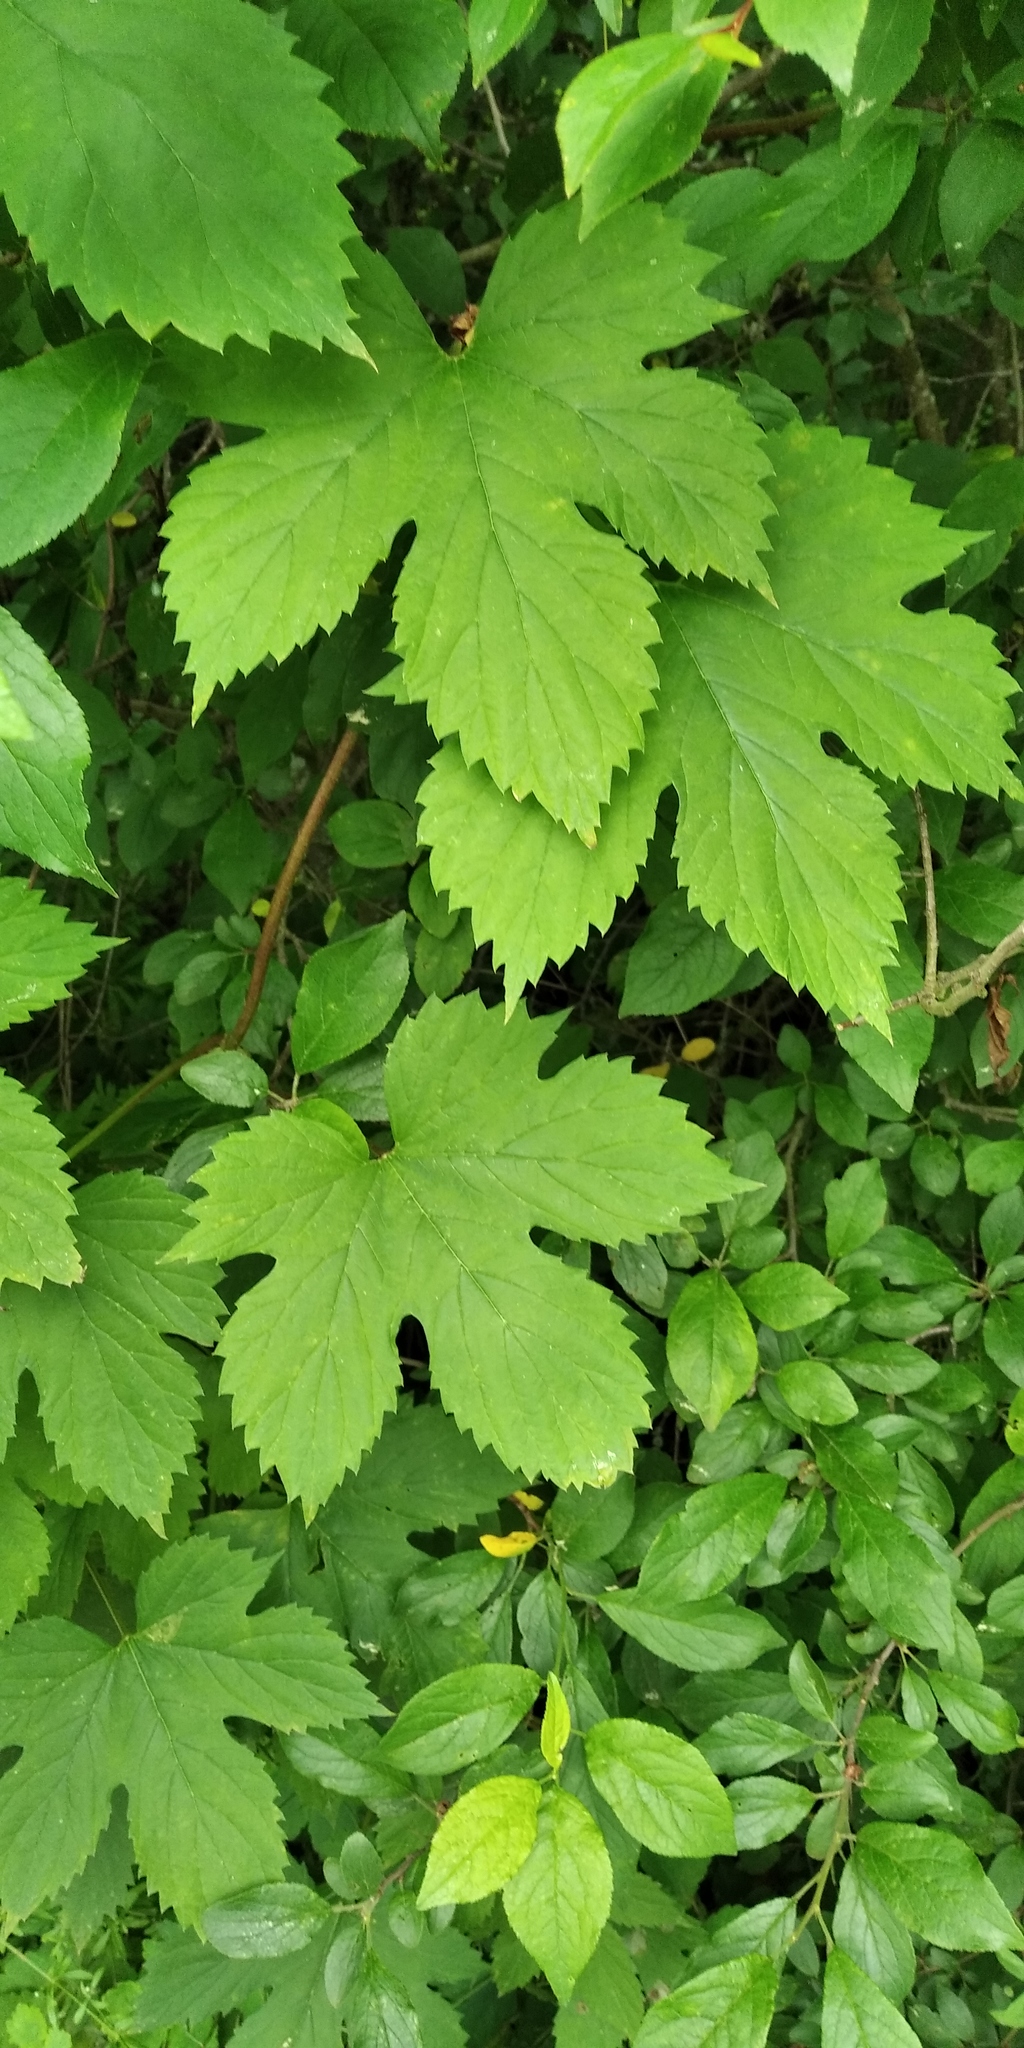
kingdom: Plantae
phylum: Tracheophyta
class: Magnoliopsida
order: Rosales
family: Cannabaceae
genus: Humulus
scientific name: Humulus lupulus
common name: Hop
